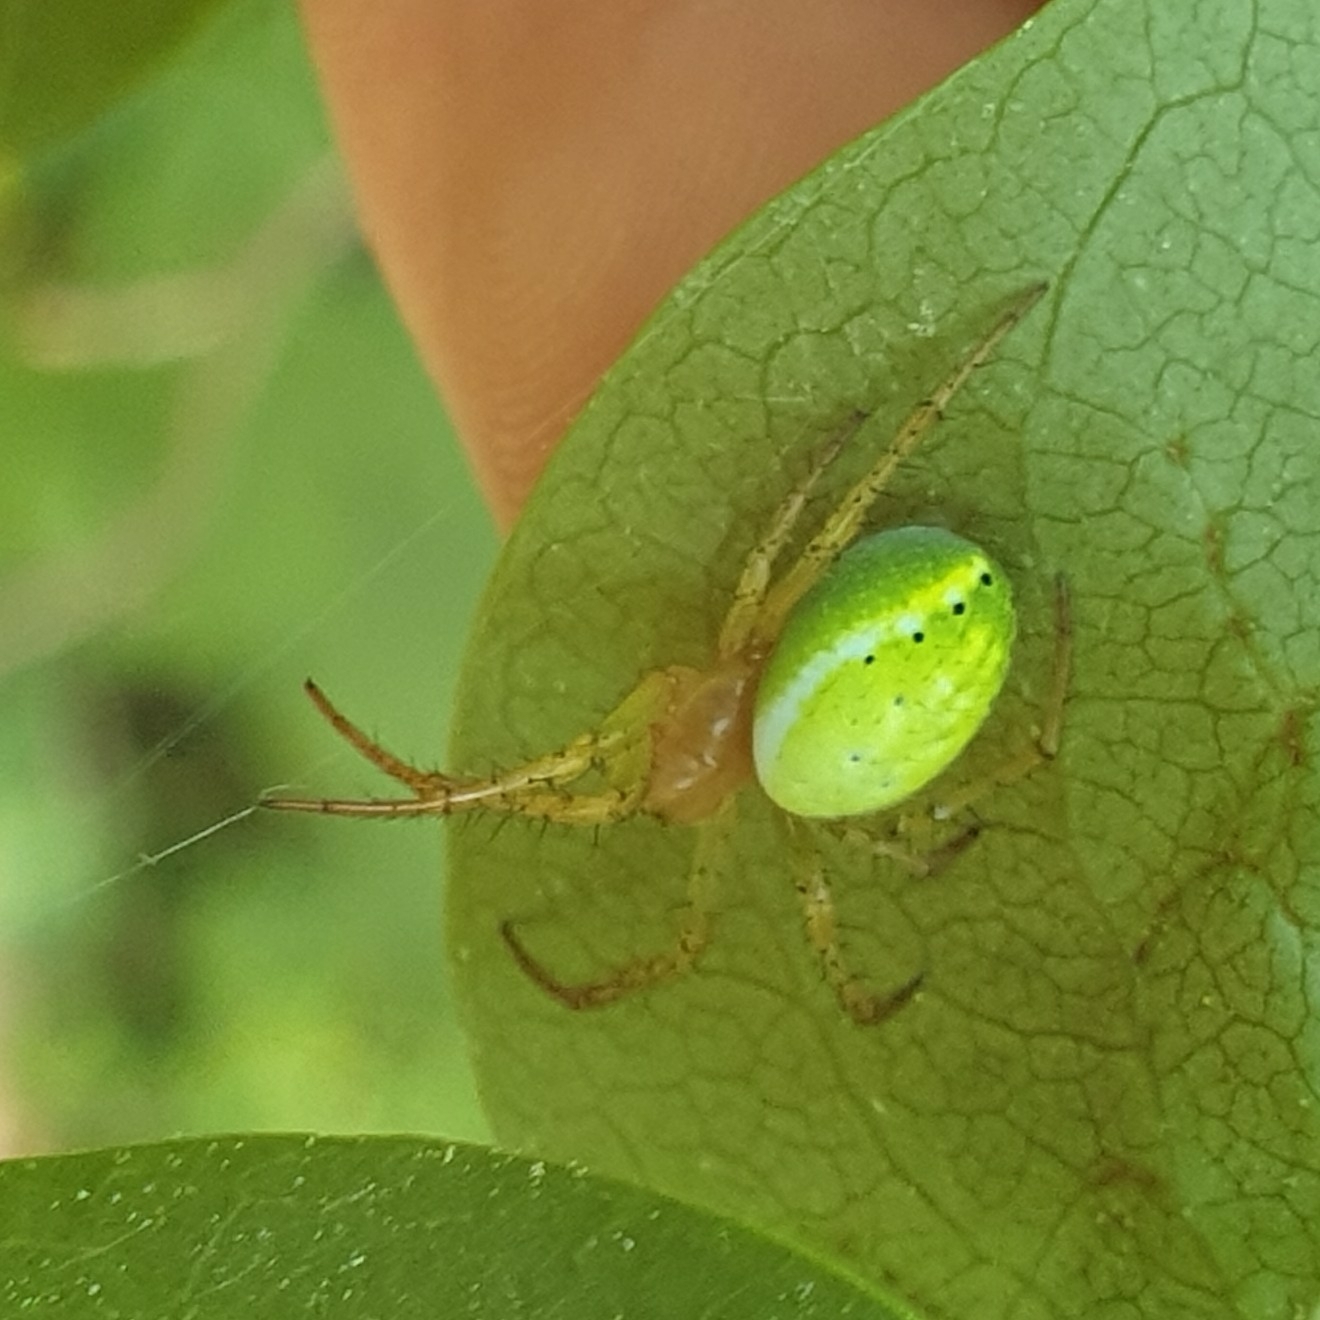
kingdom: Animalia
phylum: Arthropoda
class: Arachnida
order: Araneae
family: Araneidae
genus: Araniella
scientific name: Araniella
